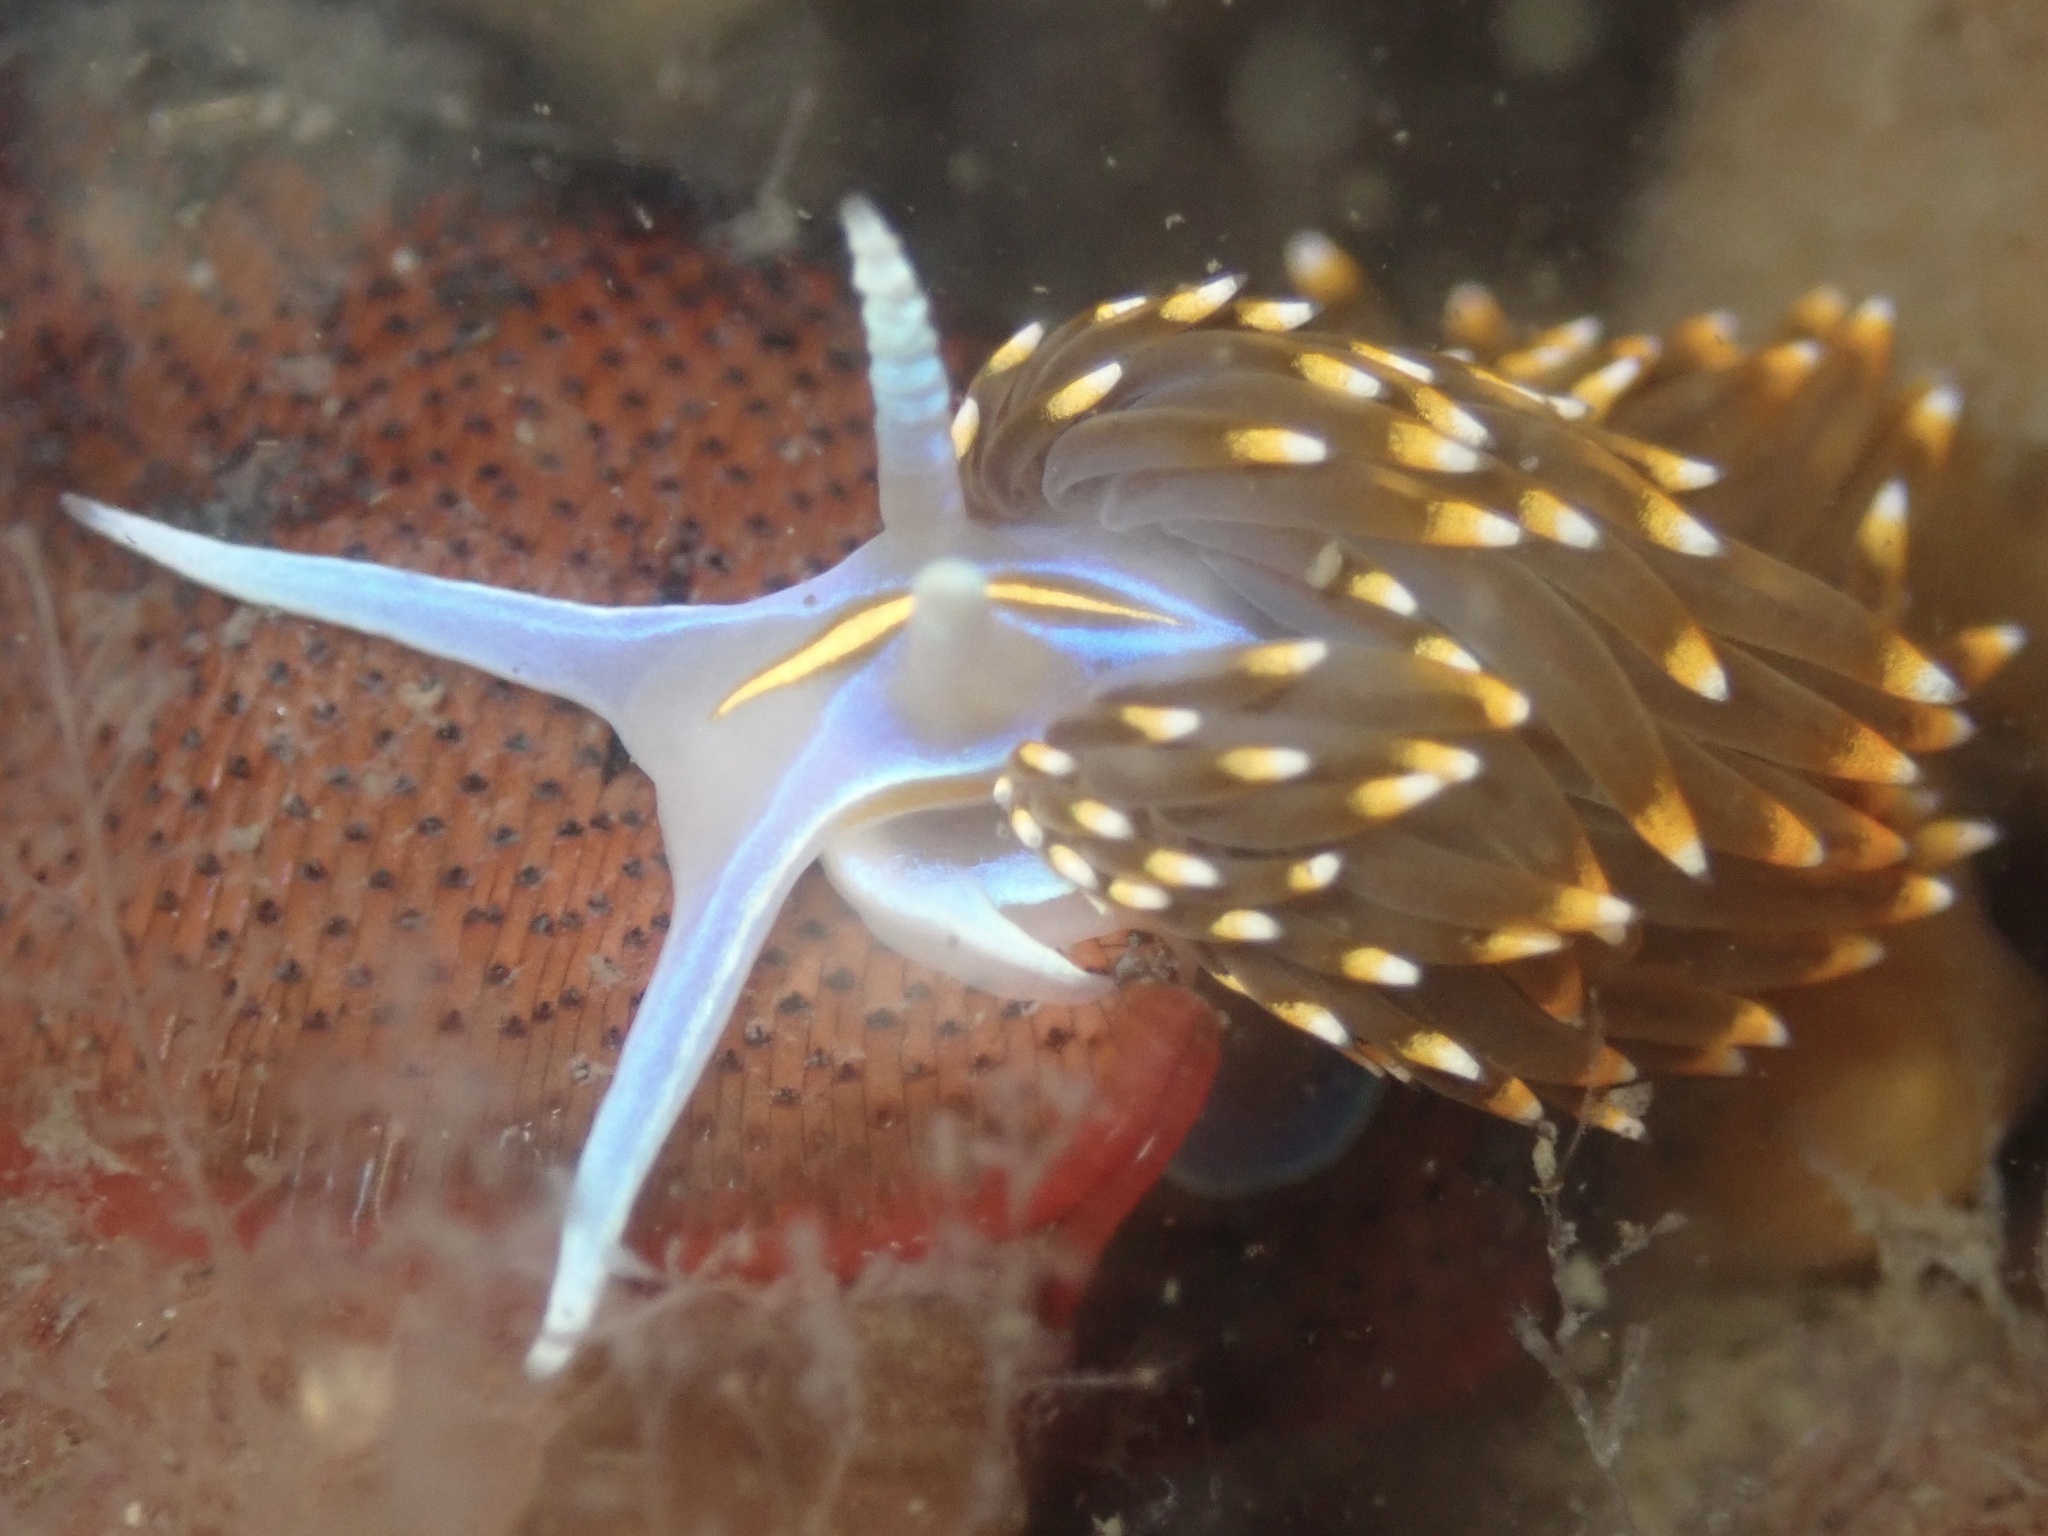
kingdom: Animalia
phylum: Mollusca
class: Gastropoda
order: Nudibranchia
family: Myrrhinidae
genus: Hermissenda
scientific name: Hermissenda opalescens
